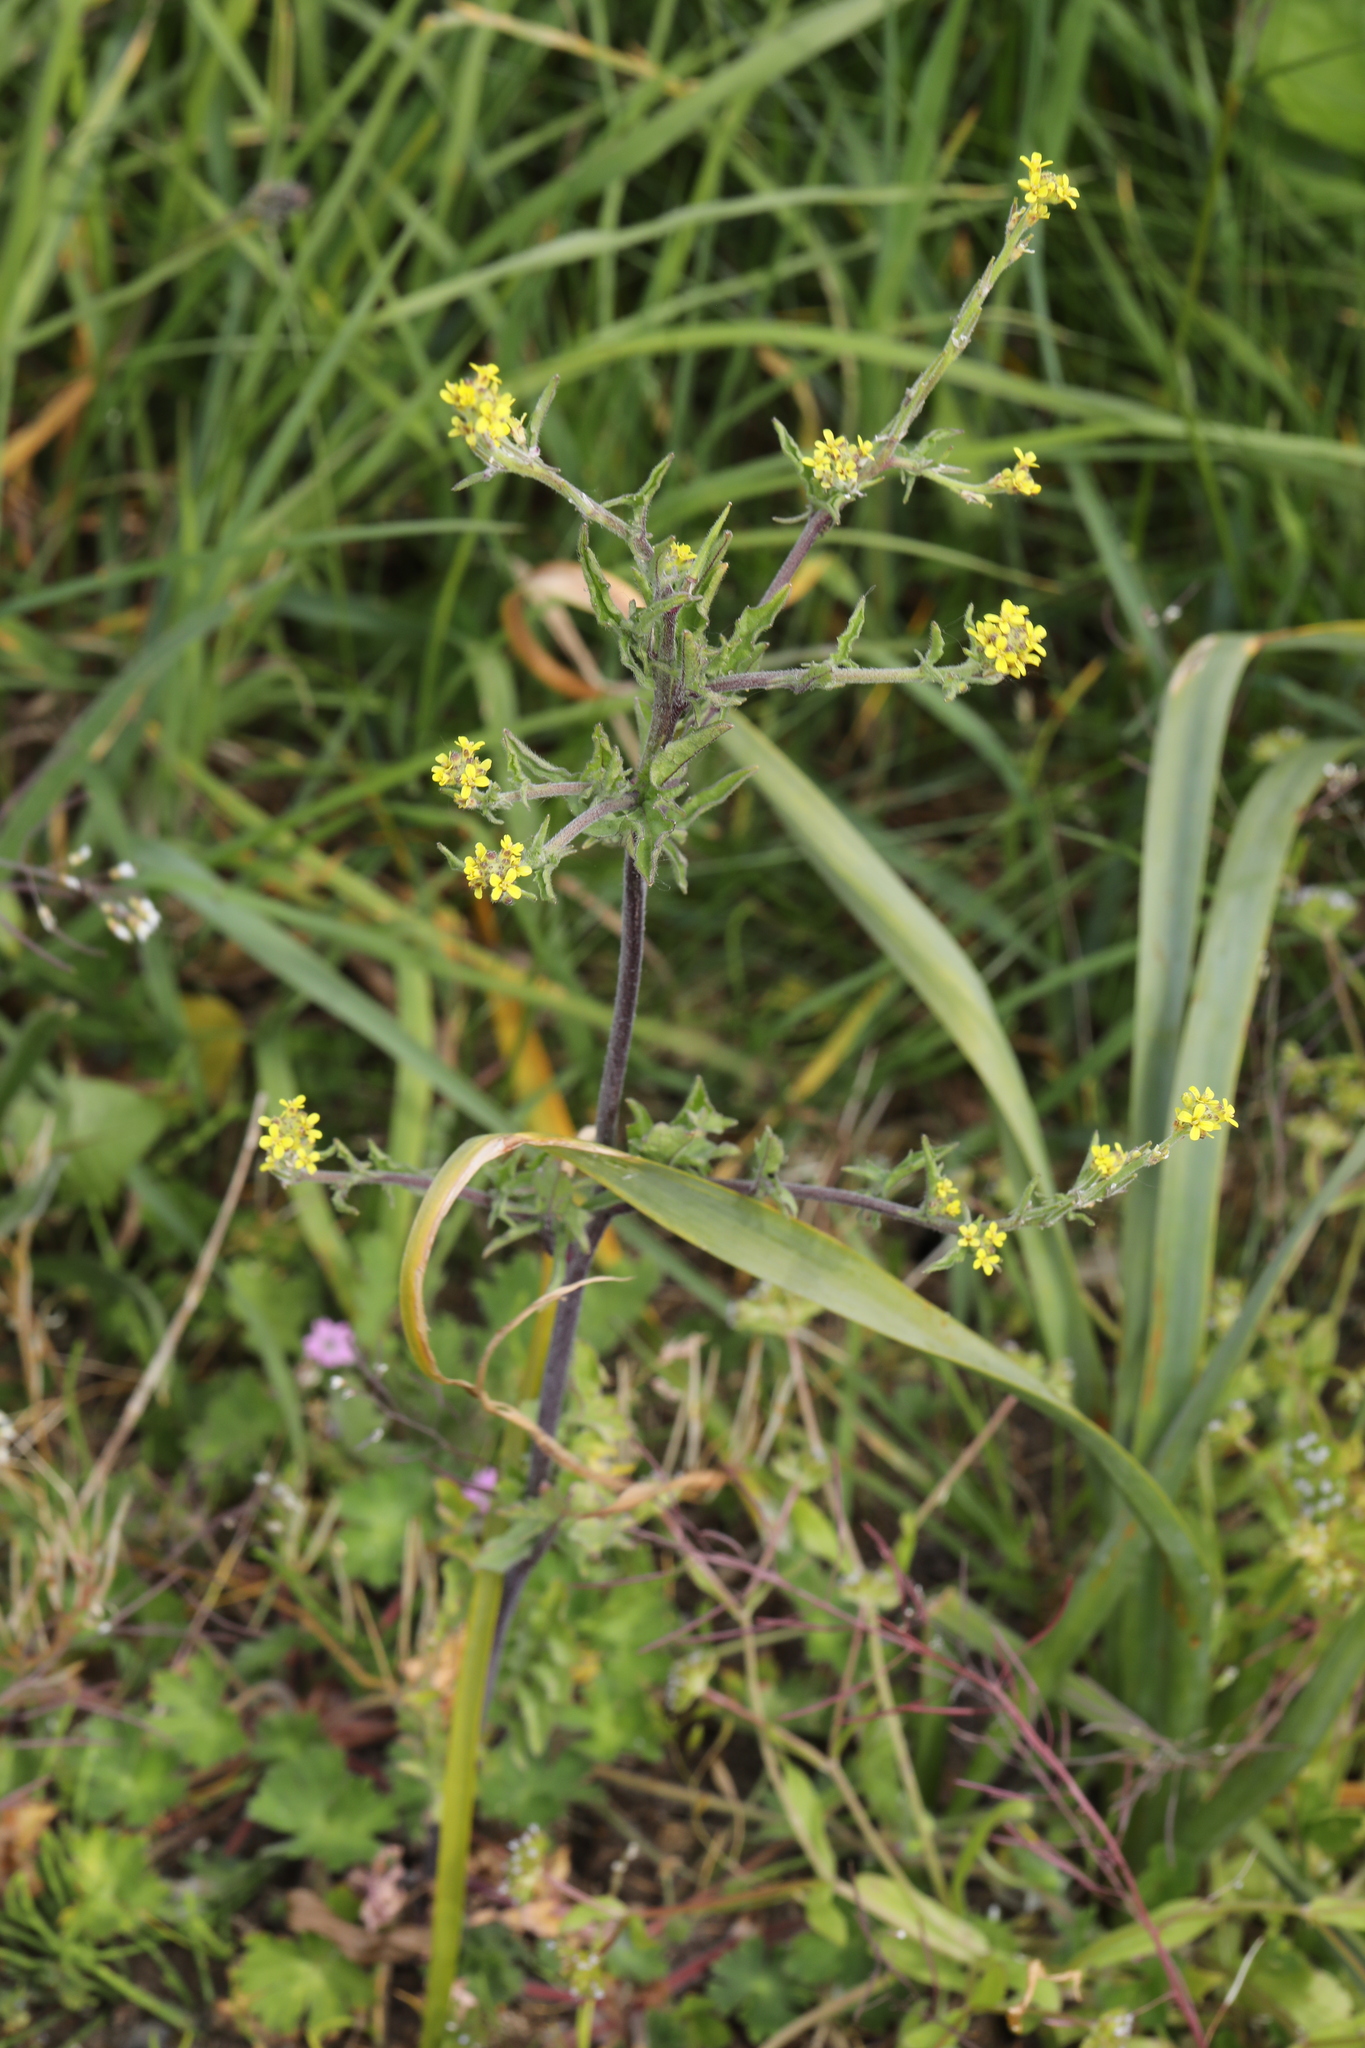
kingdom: Plantae
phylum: Tracheophyta
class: Magnoliopsida
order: Brassicales
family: Brassicaceae
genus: Sisymbrium
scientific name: Sisymbrium officinale
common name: Hedge mustard
